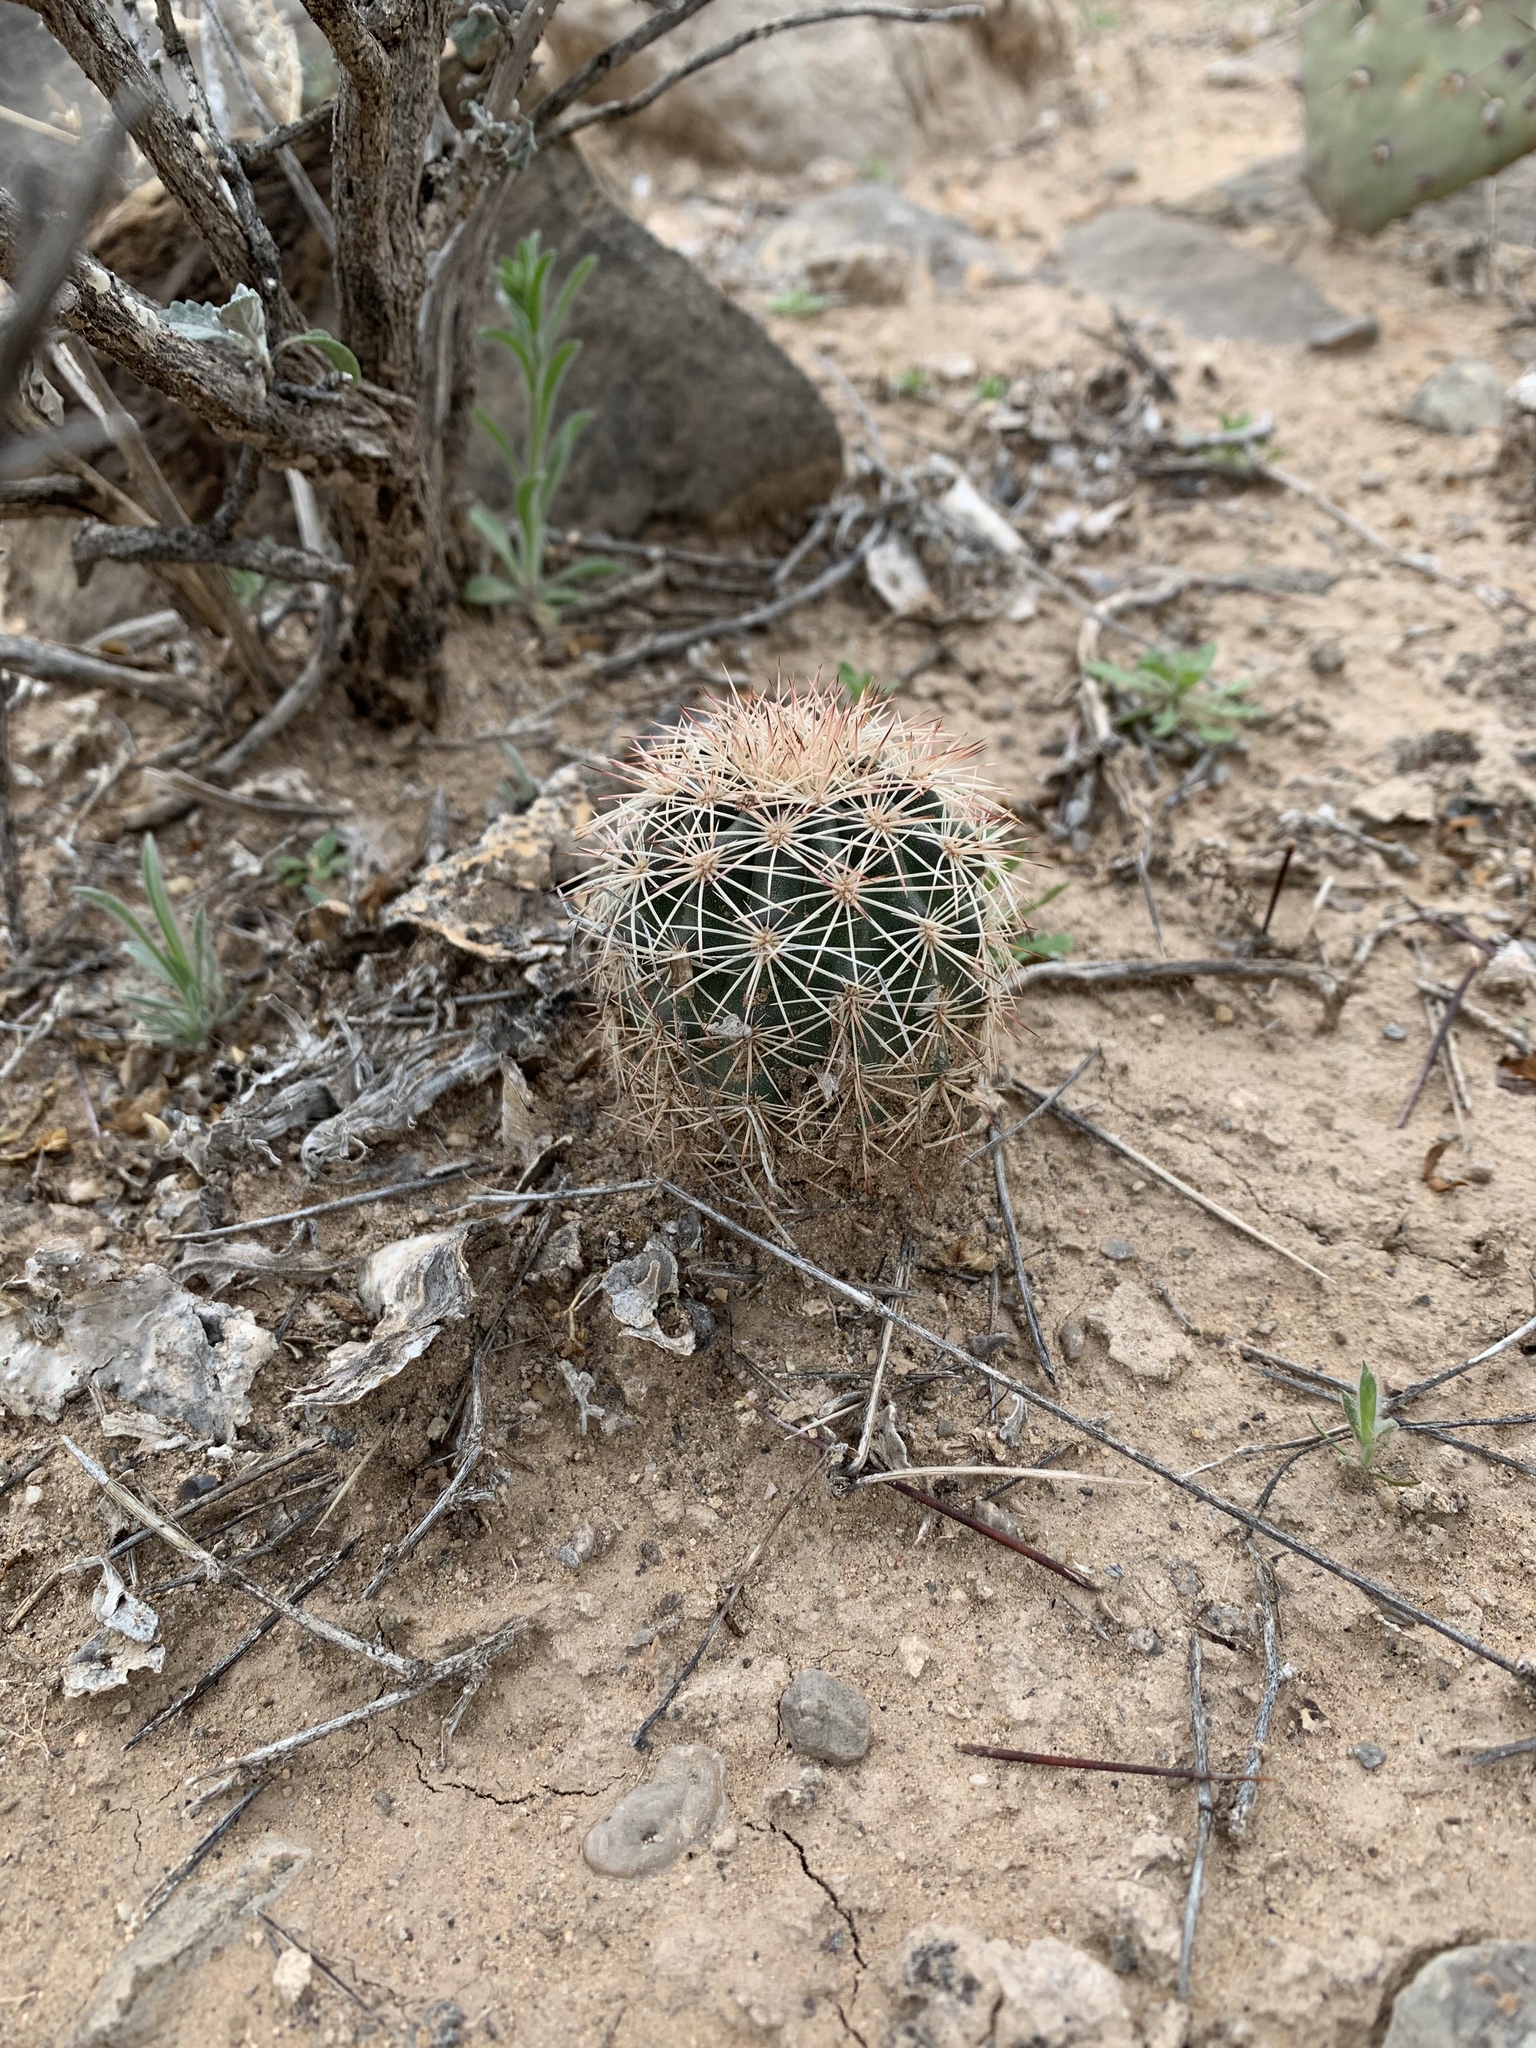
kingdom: Plantae
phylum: Tracheophyta
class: Magnoliopsida
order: Caryophyllales
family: Cactaceae
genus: Echinocereus
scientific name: Echinocereus dasyacanthus
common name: Spiny hedgehog cactus
